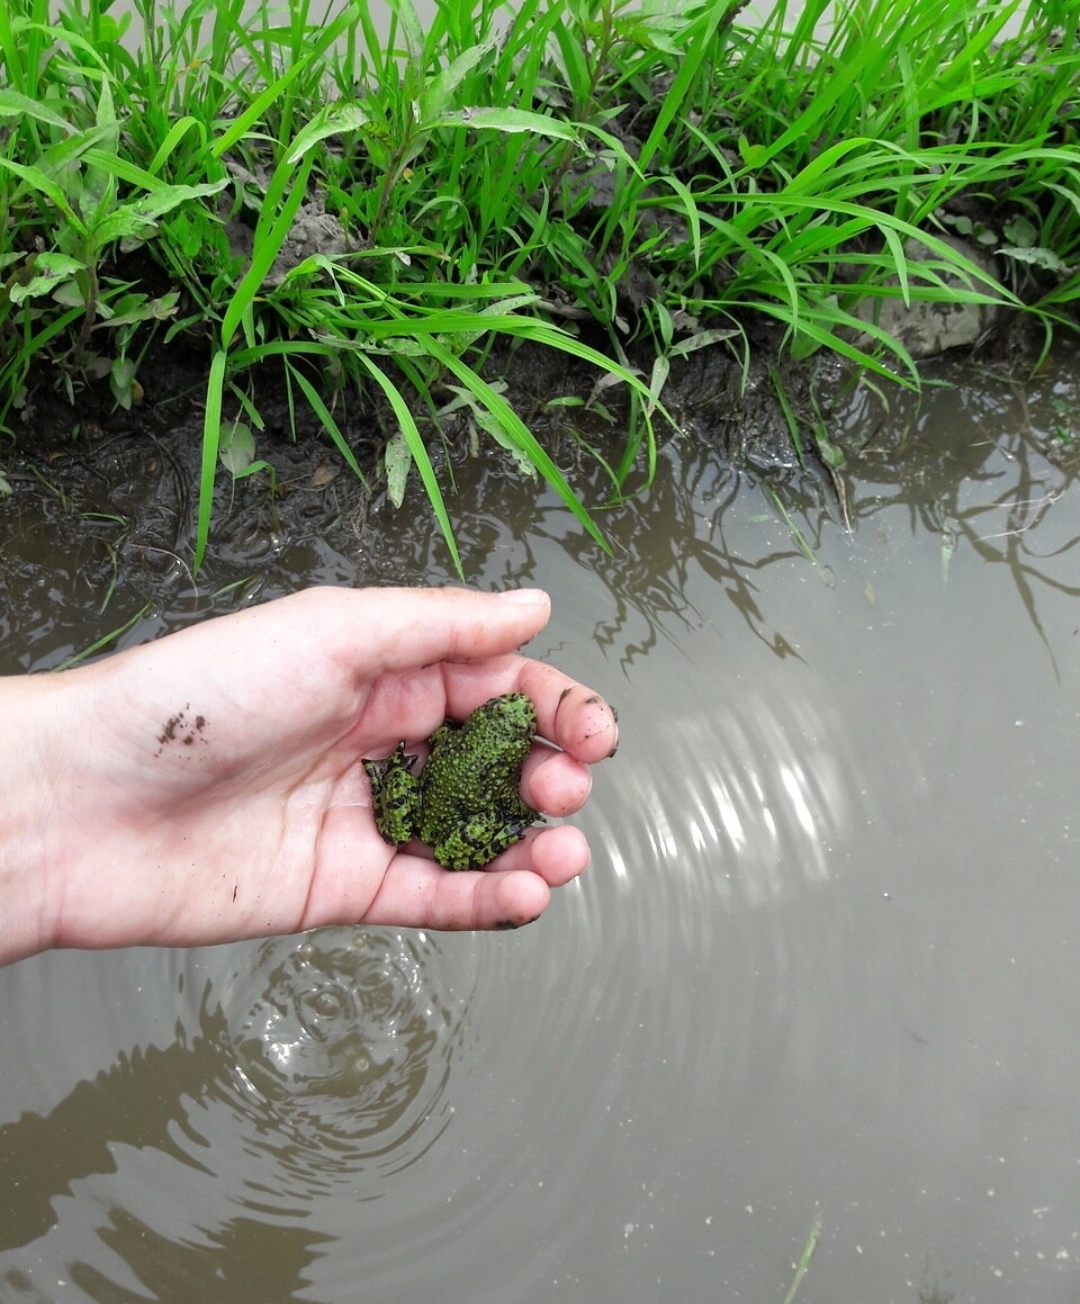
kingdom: Animalia
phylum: Chordata
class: Amphibia
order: Anura
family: Bombinatoridae
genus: Bombina
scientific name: Bombina orientalis
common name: Oriental firebelly toad
